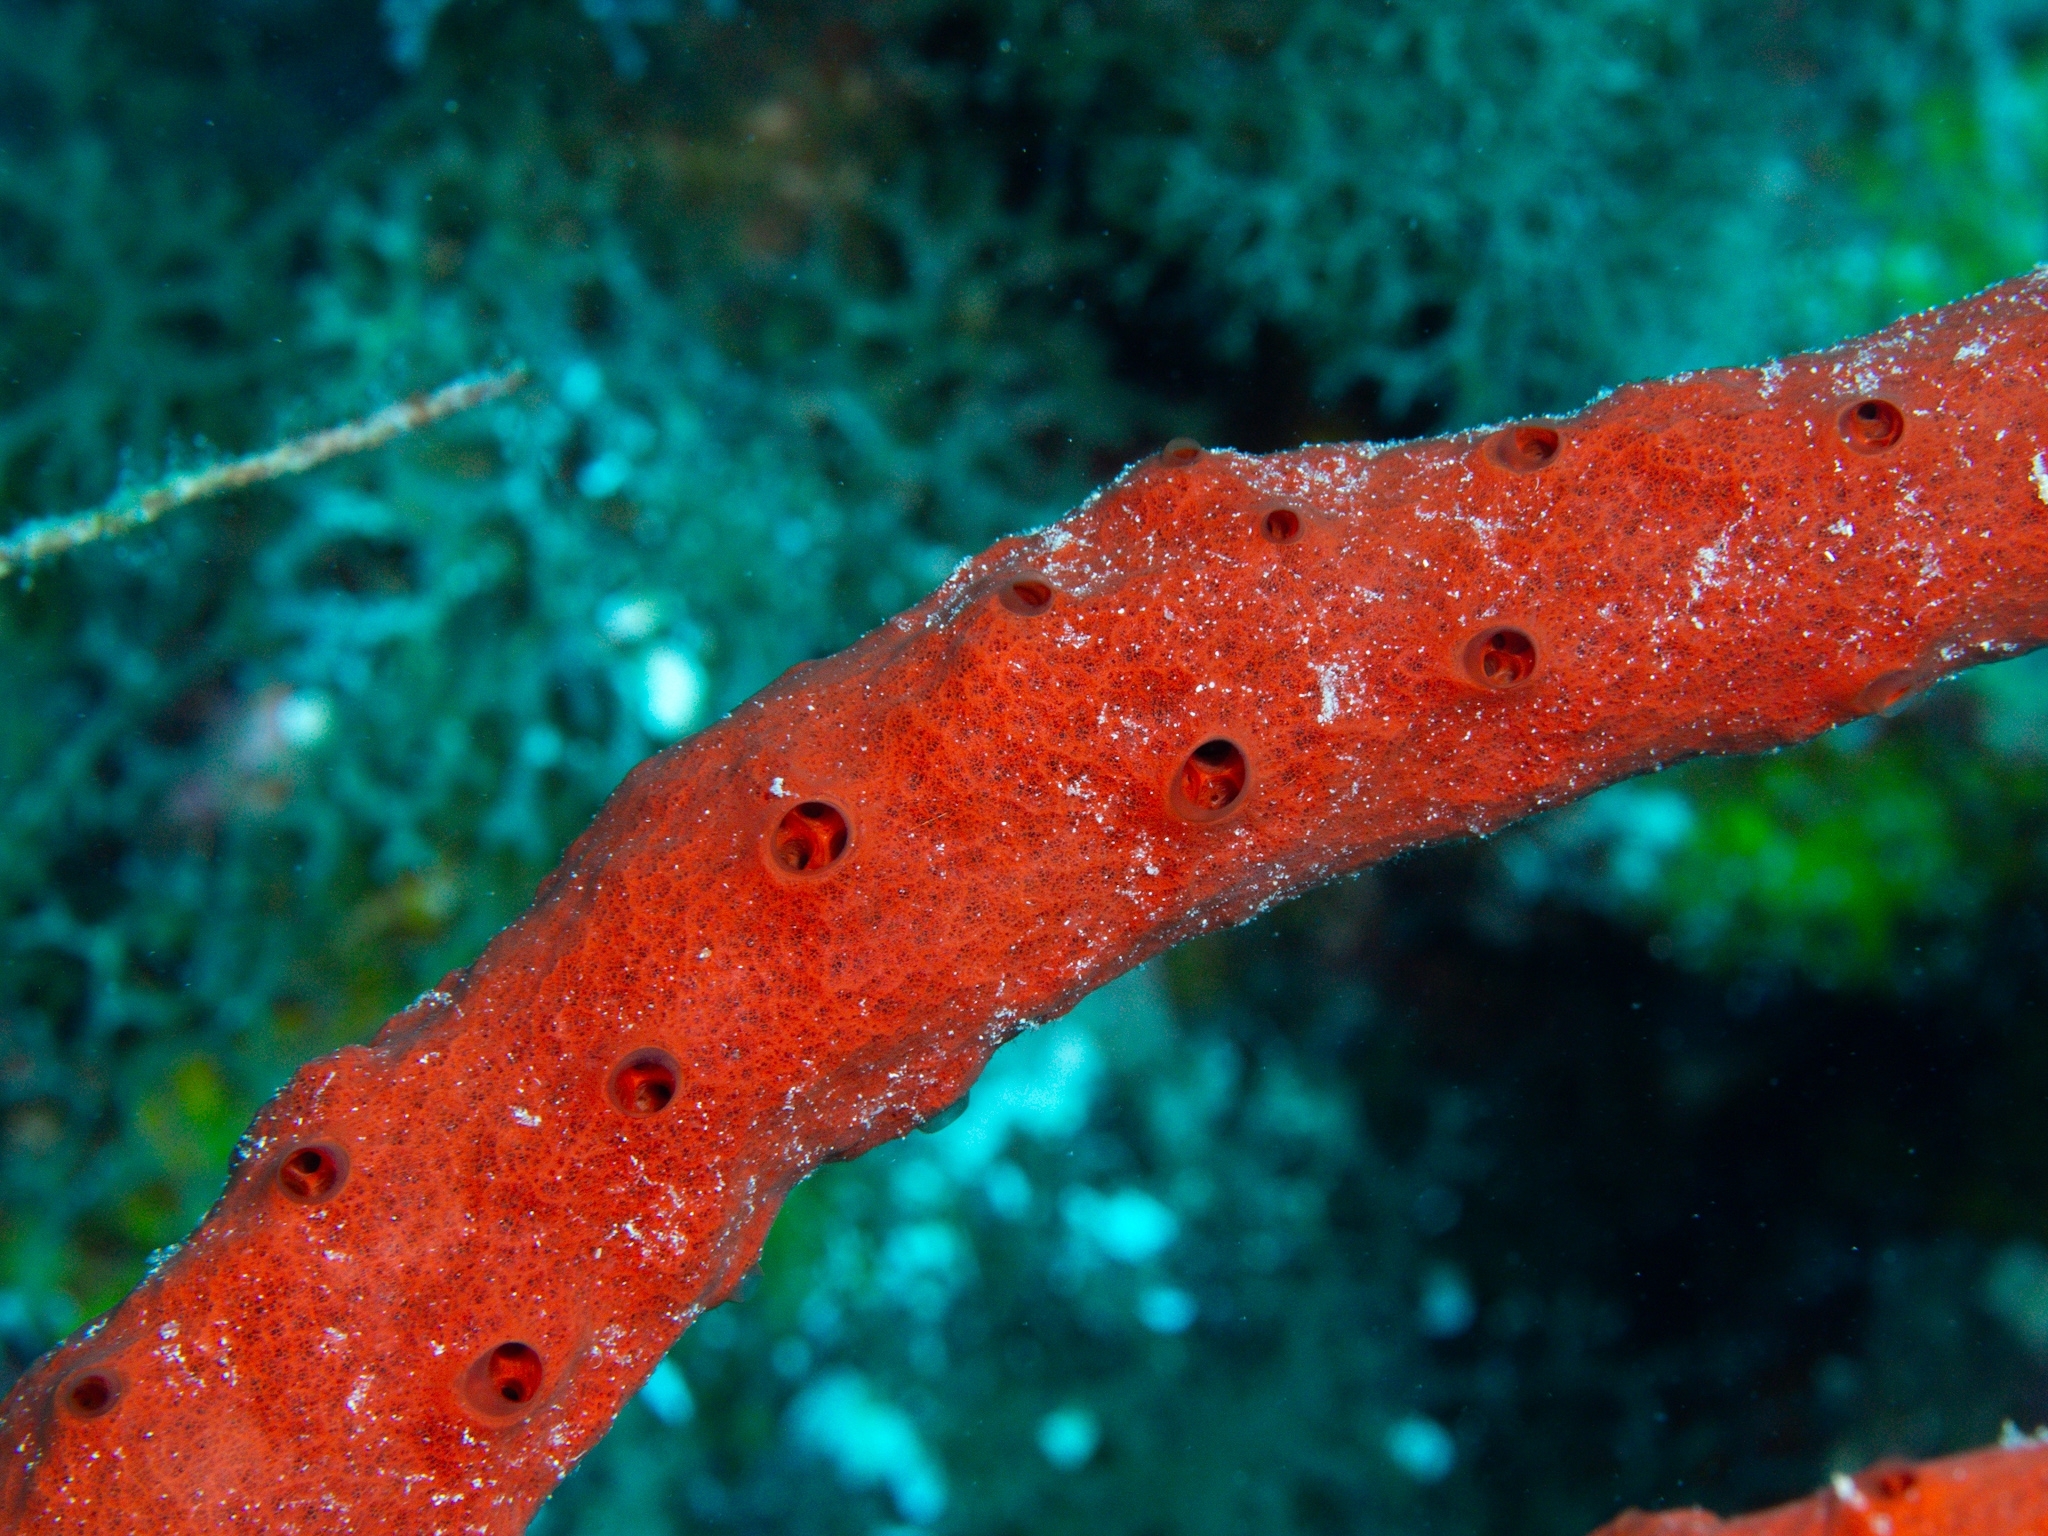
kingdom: Animalia
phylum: Porifera
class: Demospongiae
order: Haplosclerida
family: Niphatidae
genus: Amphimedon
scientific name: Amphimedon compressa
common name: Red sponge
